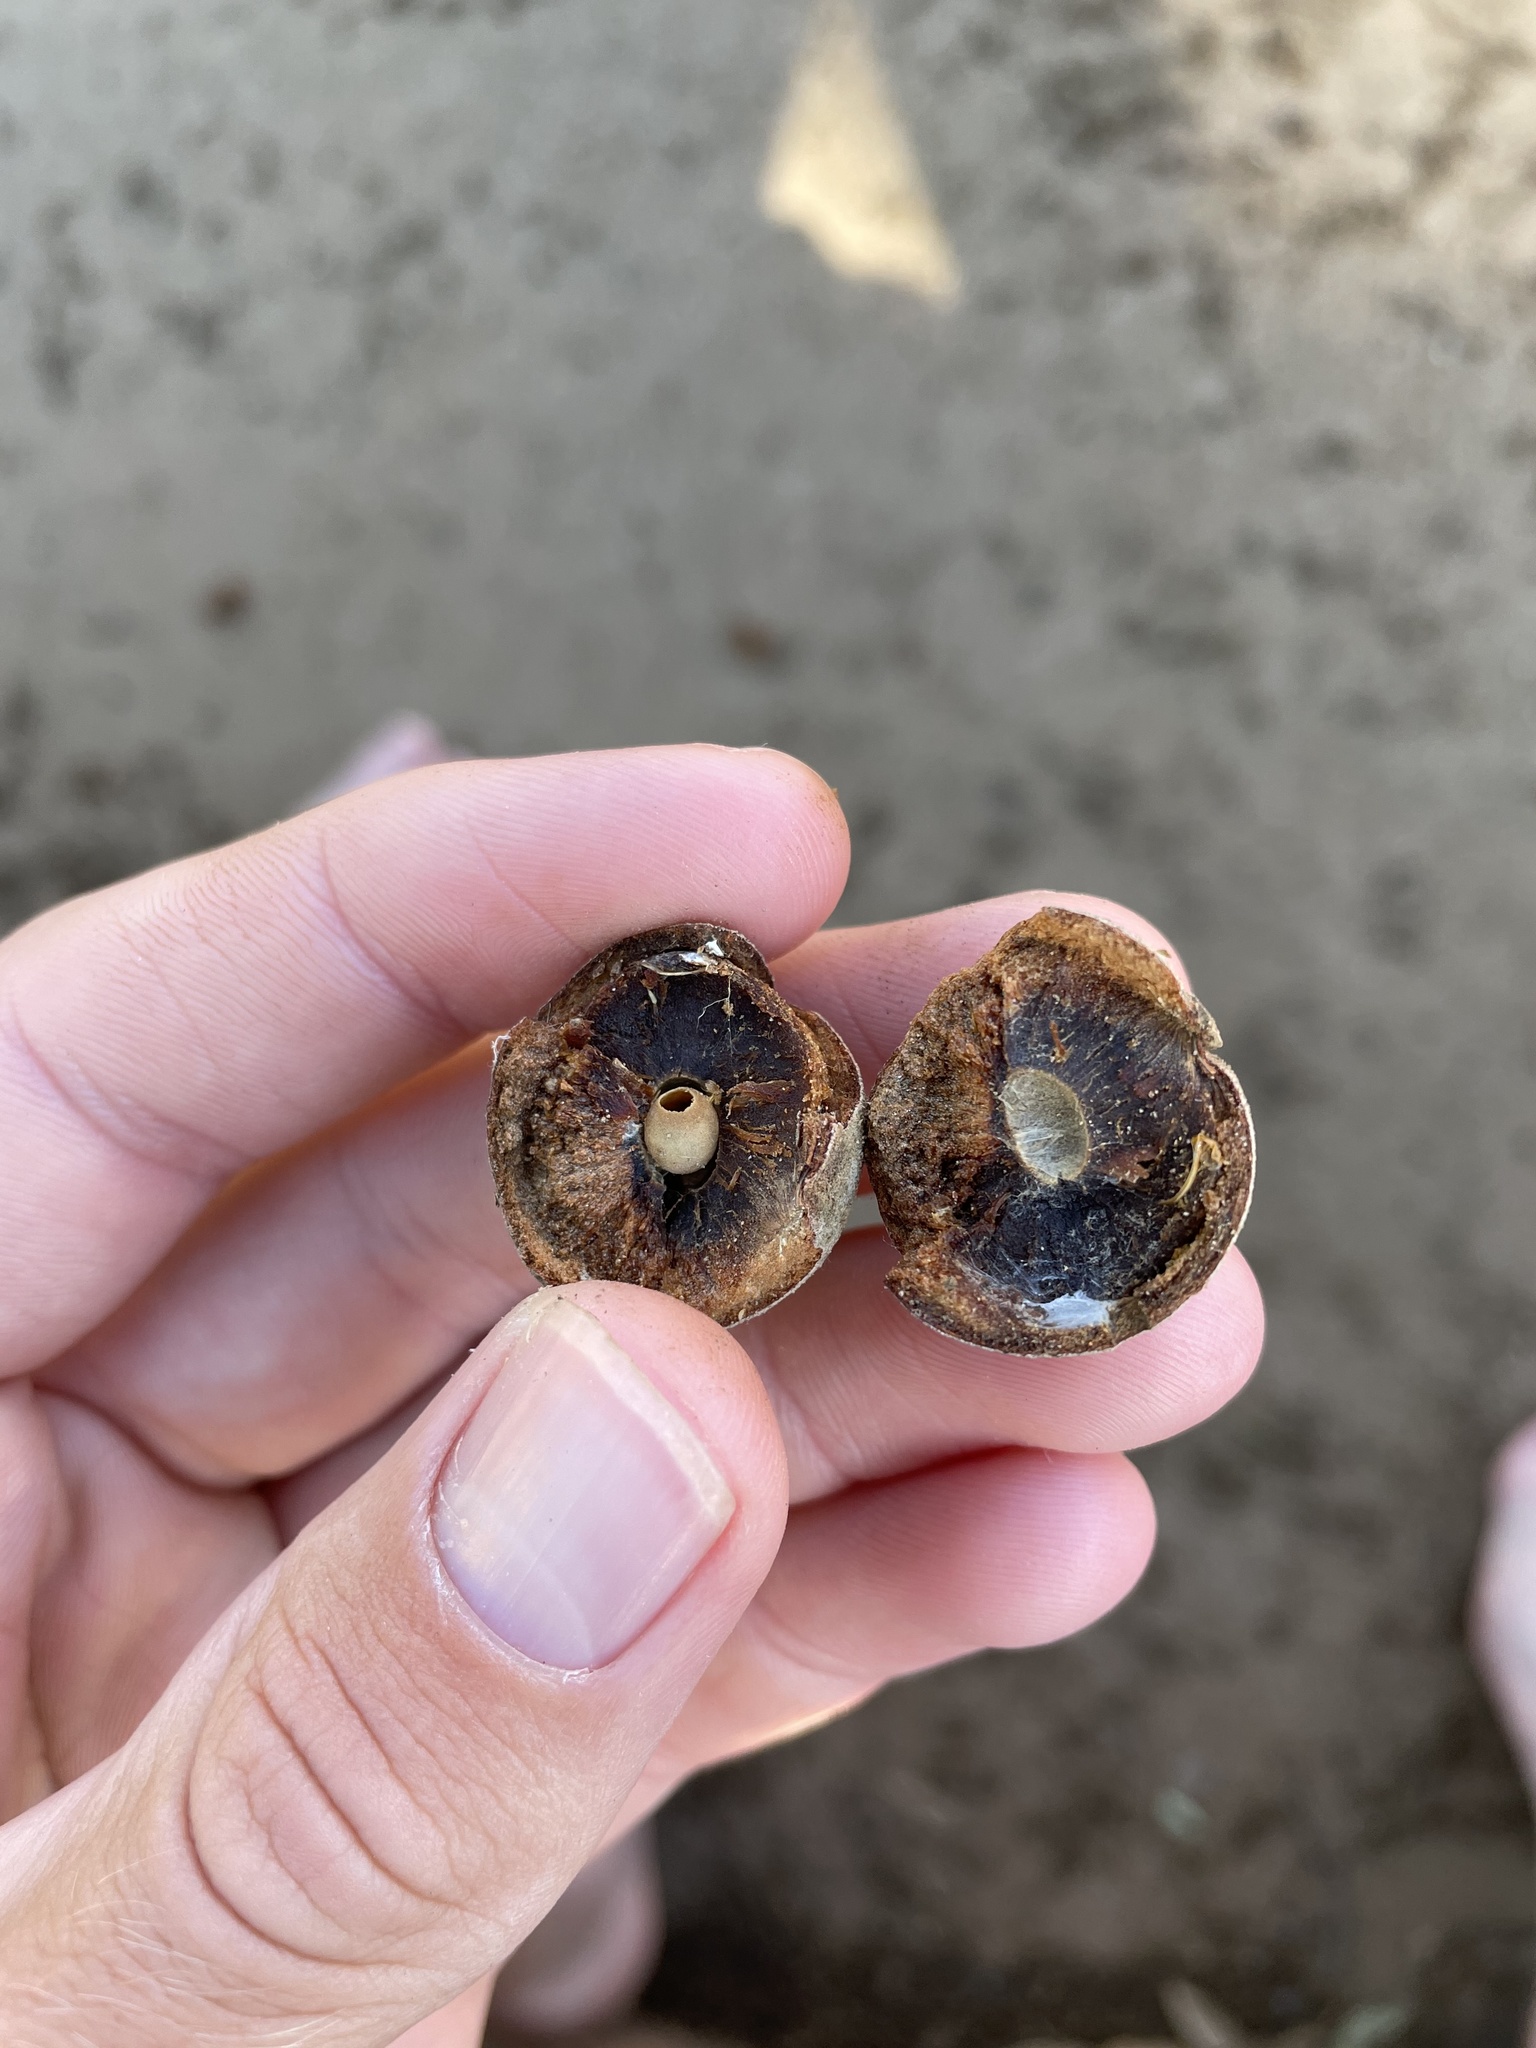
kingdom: Animalia
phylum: Arthropoda
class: Insecta
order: Hymenoptera
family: Cynipidae
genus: Disholcaspis
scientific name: Disholcaspis
